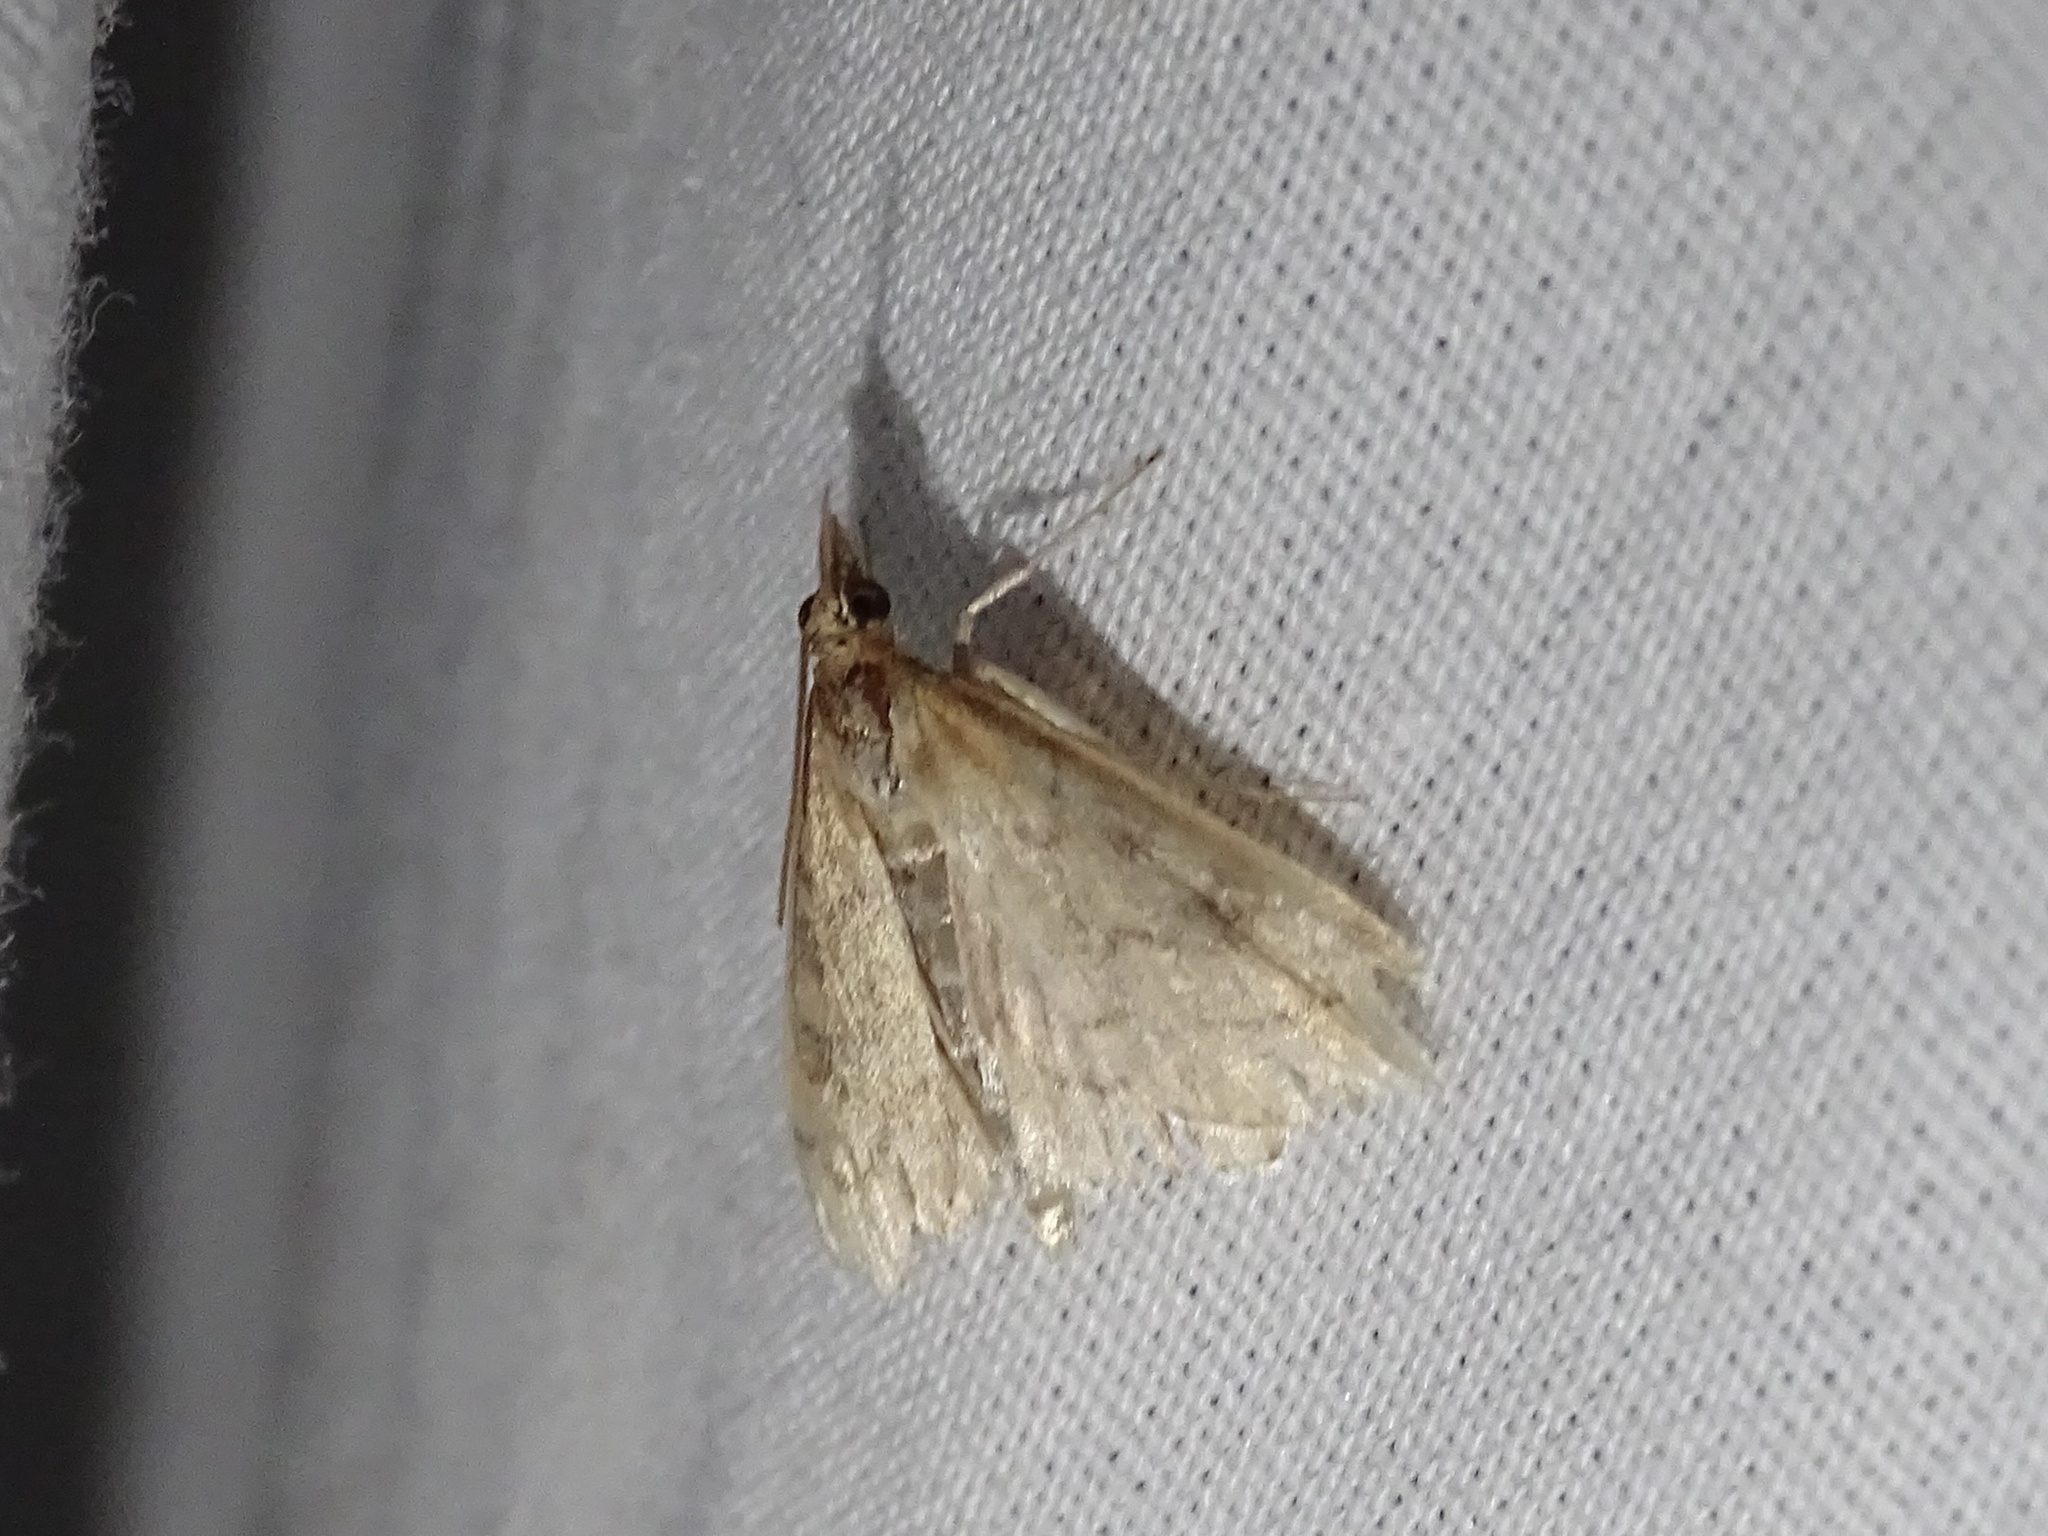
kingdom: Animalia
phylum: Arthropoda
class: Insecta
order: Lepidoptera
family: Crambidae
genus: Udea
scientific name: Udea rubigalis
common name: Celery leaftier moth
